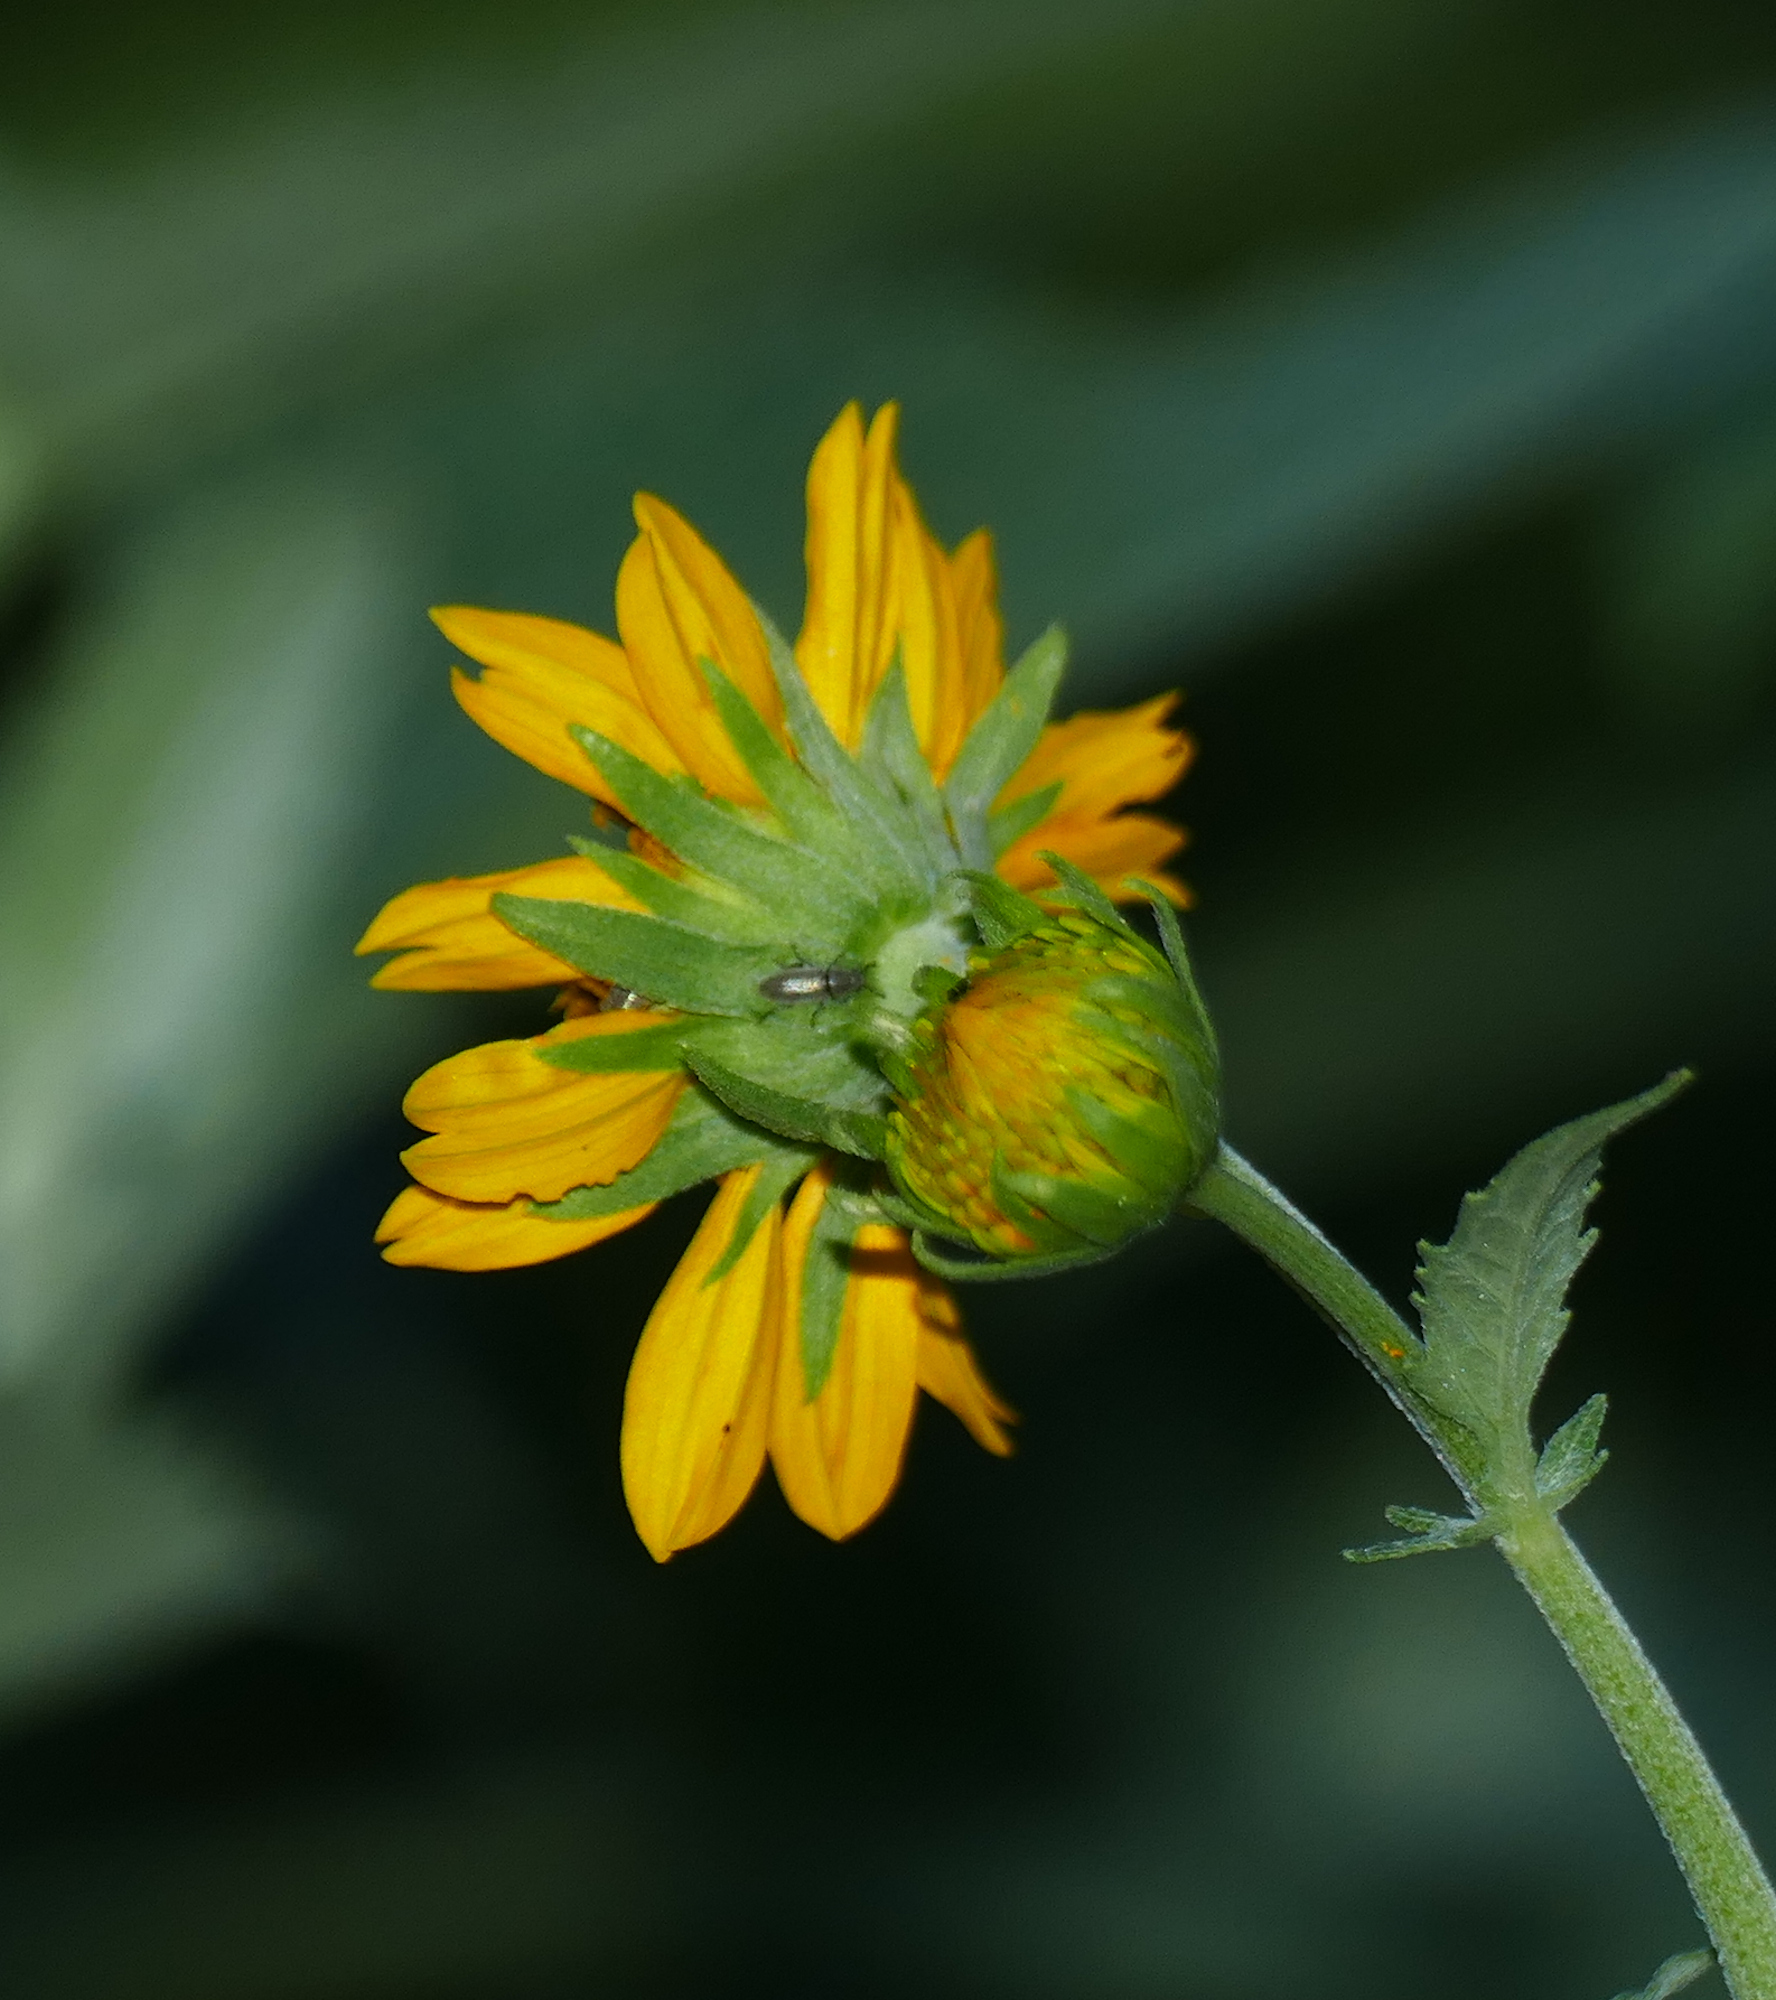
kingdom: Plantae
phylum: Tracheophyta
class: Magnoliopsida
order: Asterales
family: Asteraceae
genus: Verbesina
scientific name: Verbesina encelioides
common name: Golden crownbeard
